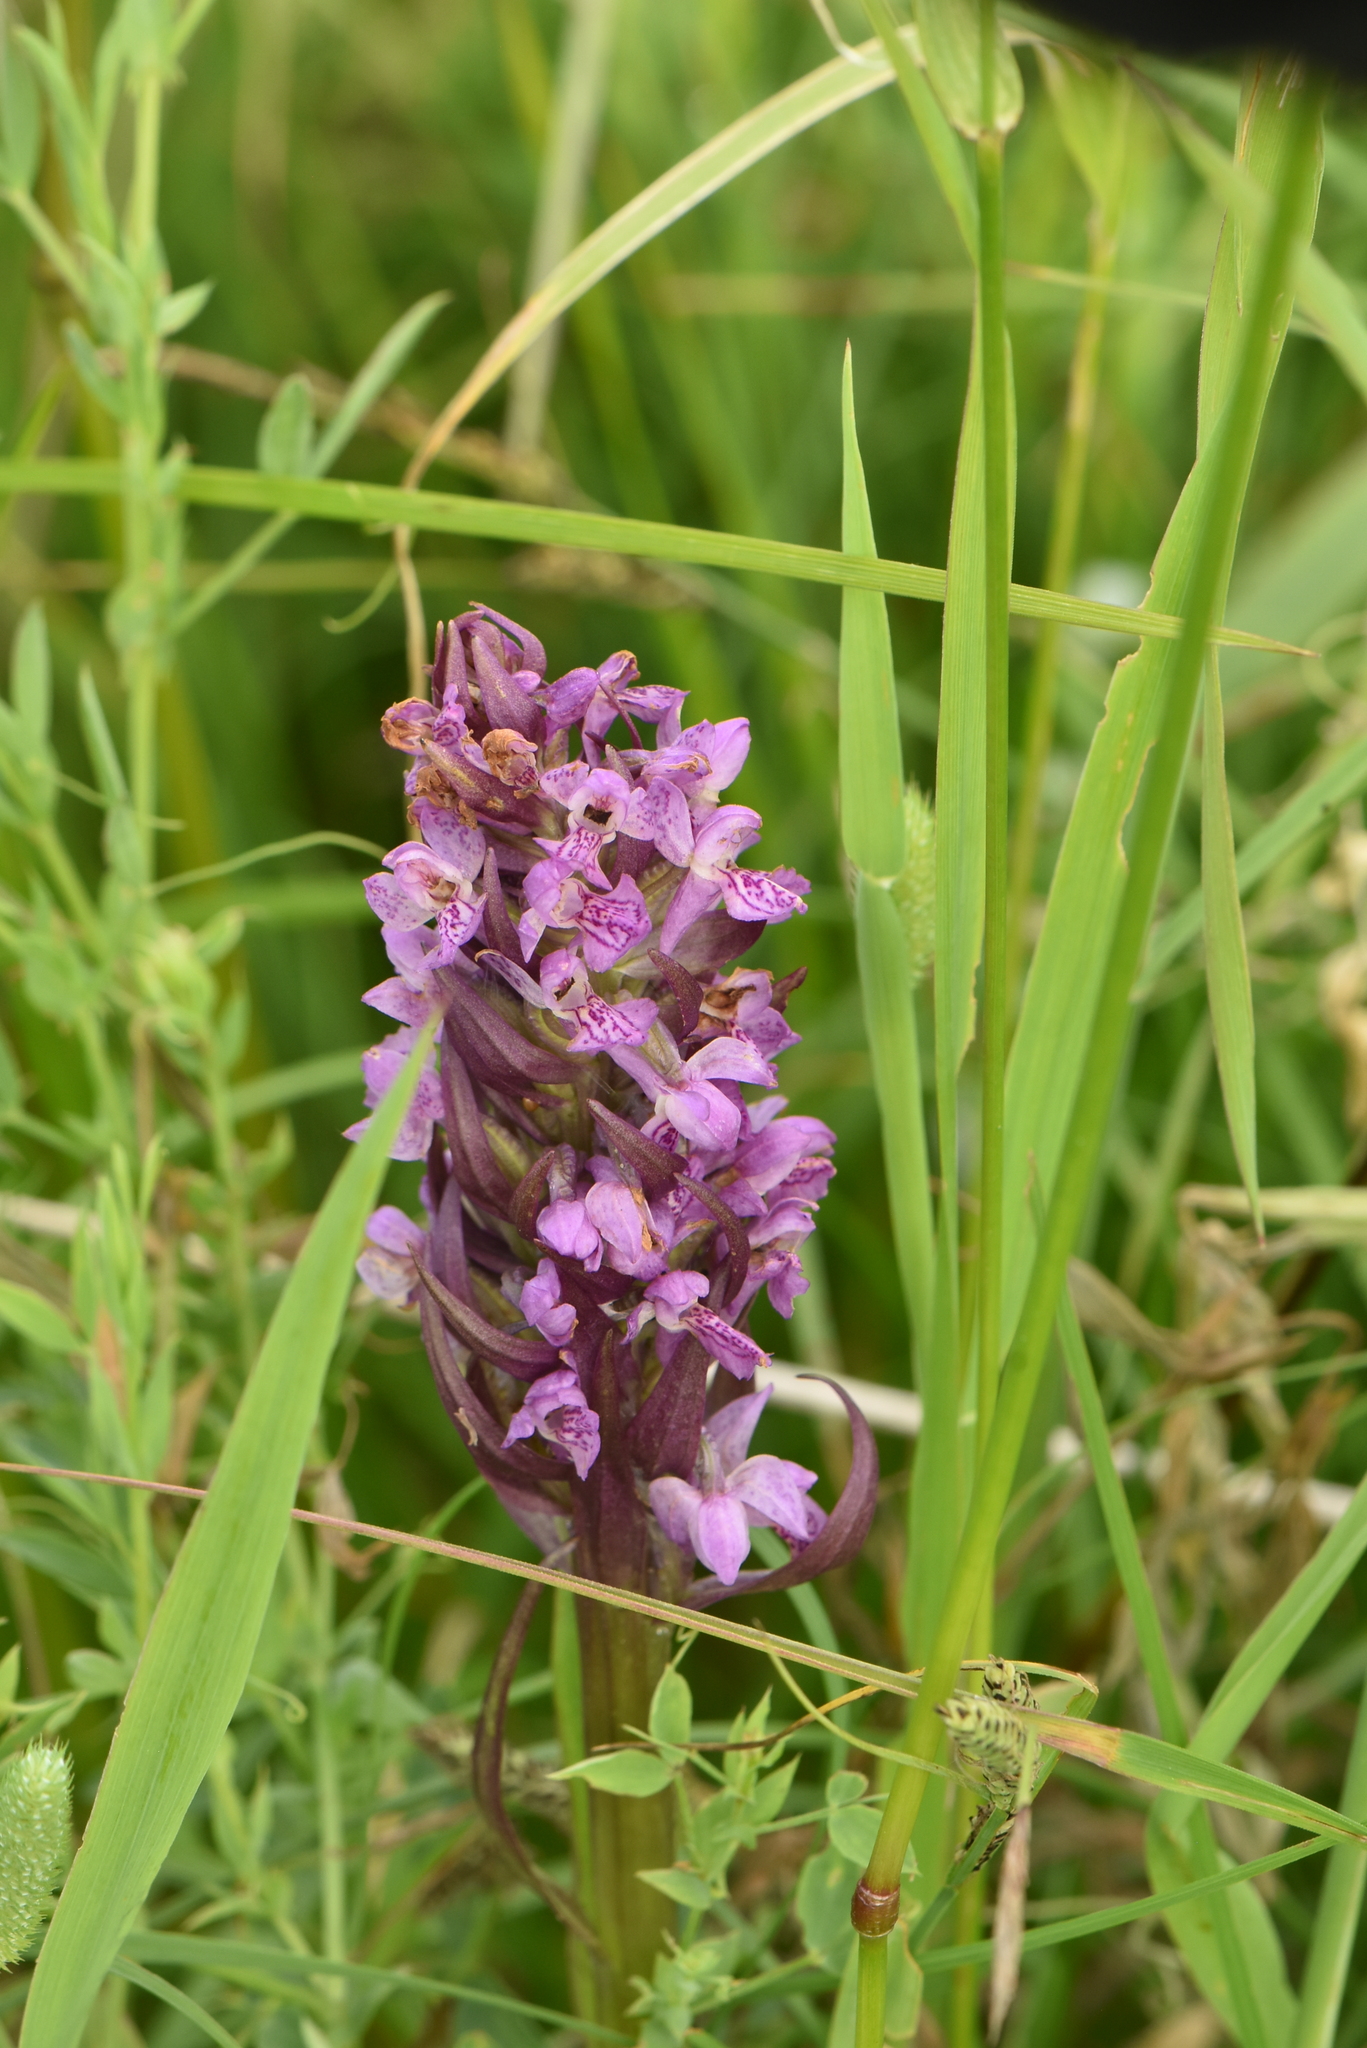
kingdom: Plantae
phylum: Tracheophyta
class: Liliopsida
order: Asparagales
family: Orchidaceae
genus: Dactylorhiza
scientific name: Dactylorhiza incarnata
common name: Early marsh-orchid
